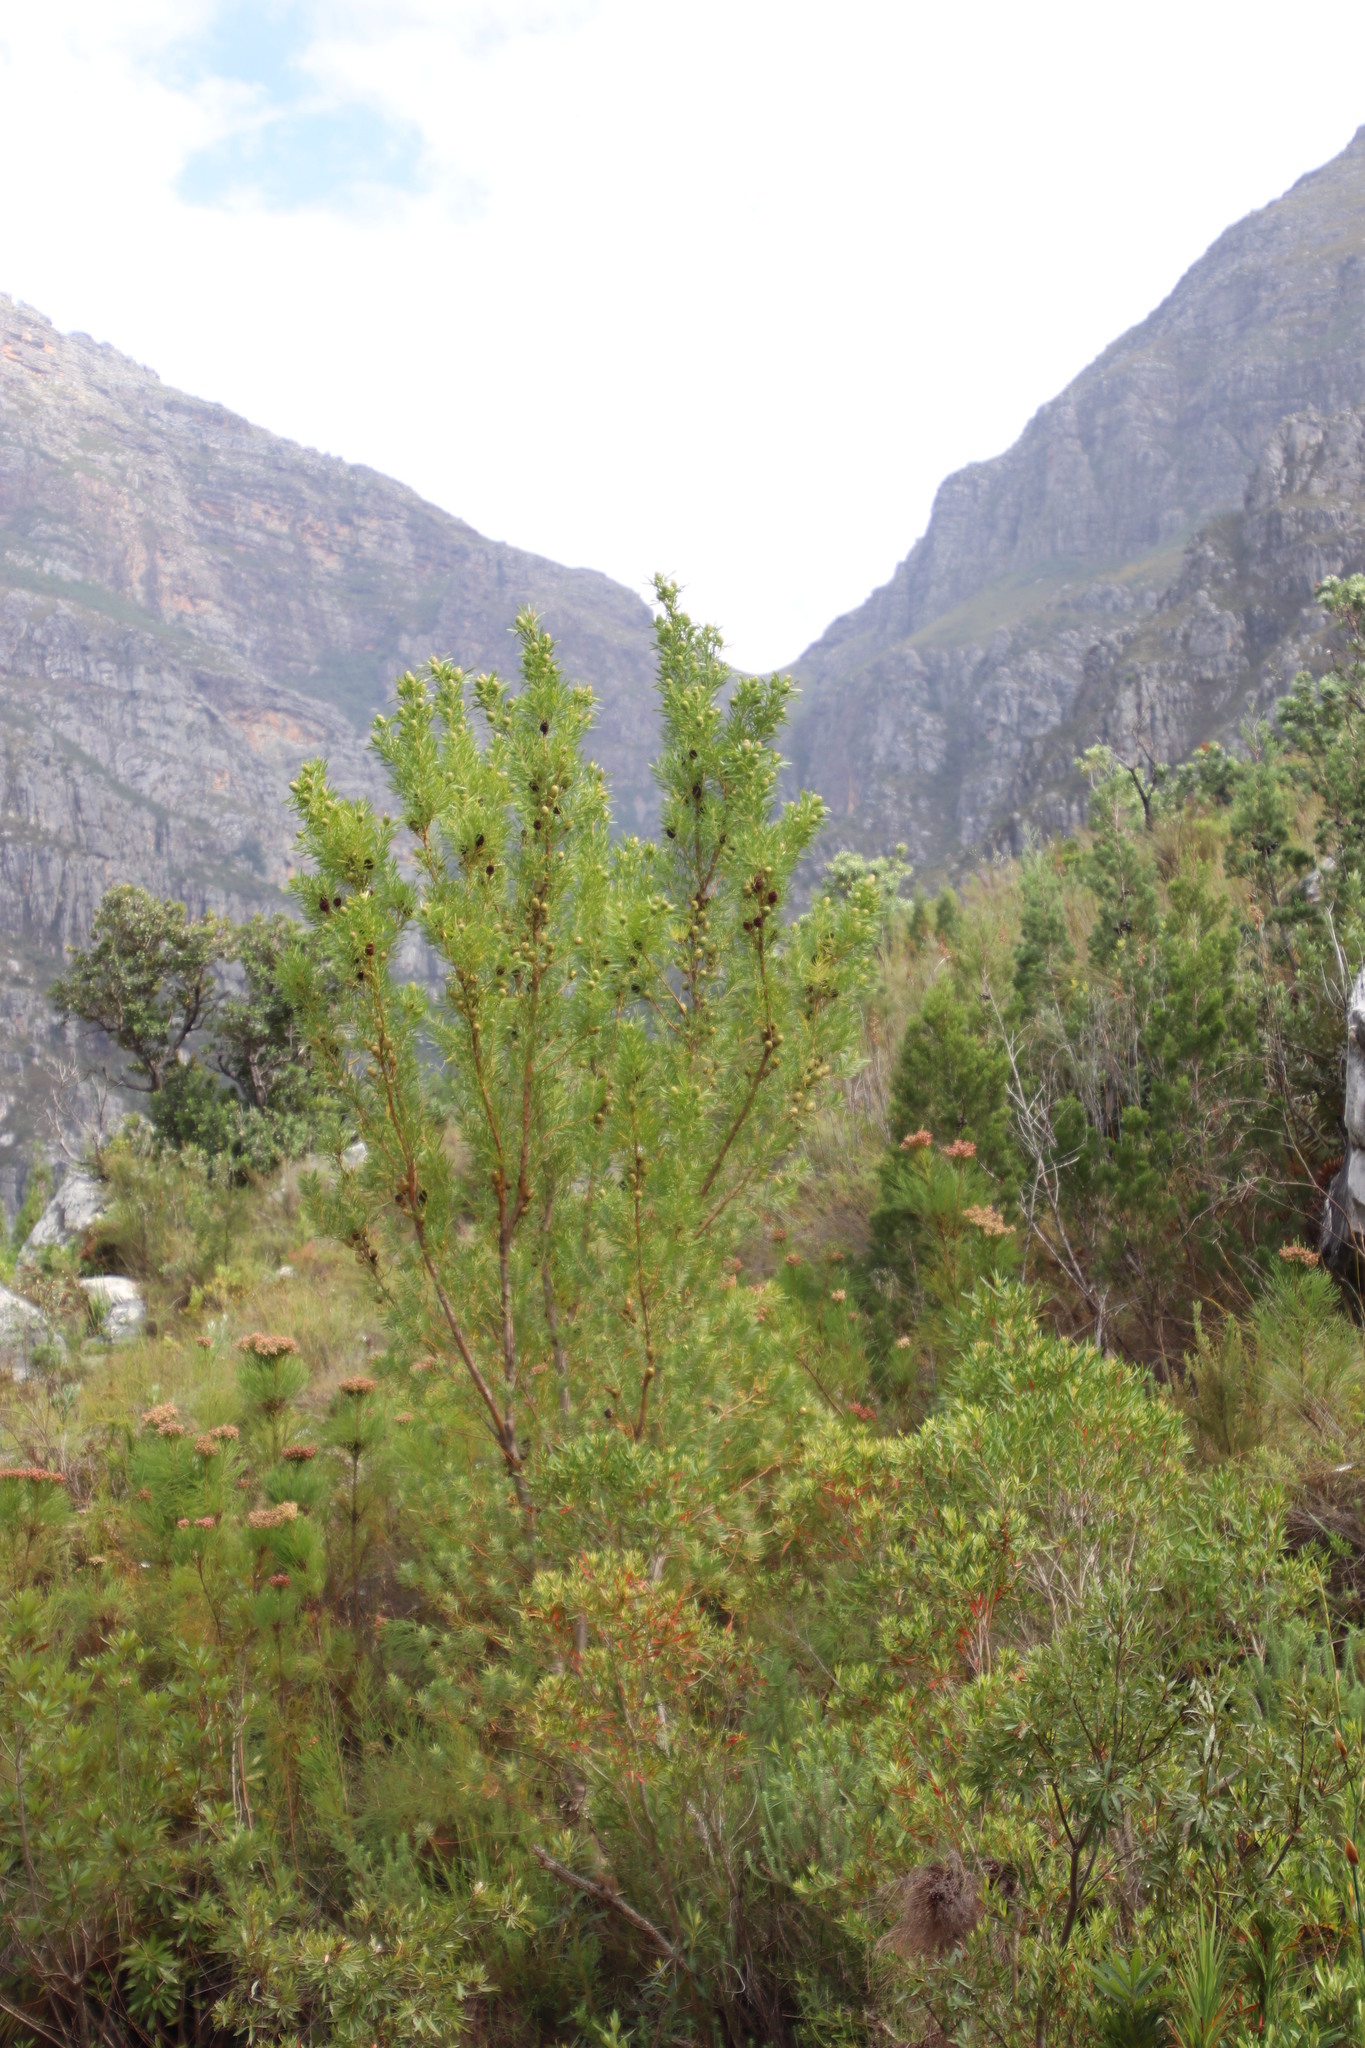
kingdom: Plantae
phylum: Tracheophyta
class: Magnoliopsida
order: Proteales
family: Proteaceae
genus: Leucadendron
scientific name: Leucadendron salicifolium
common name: Common stream conebush
